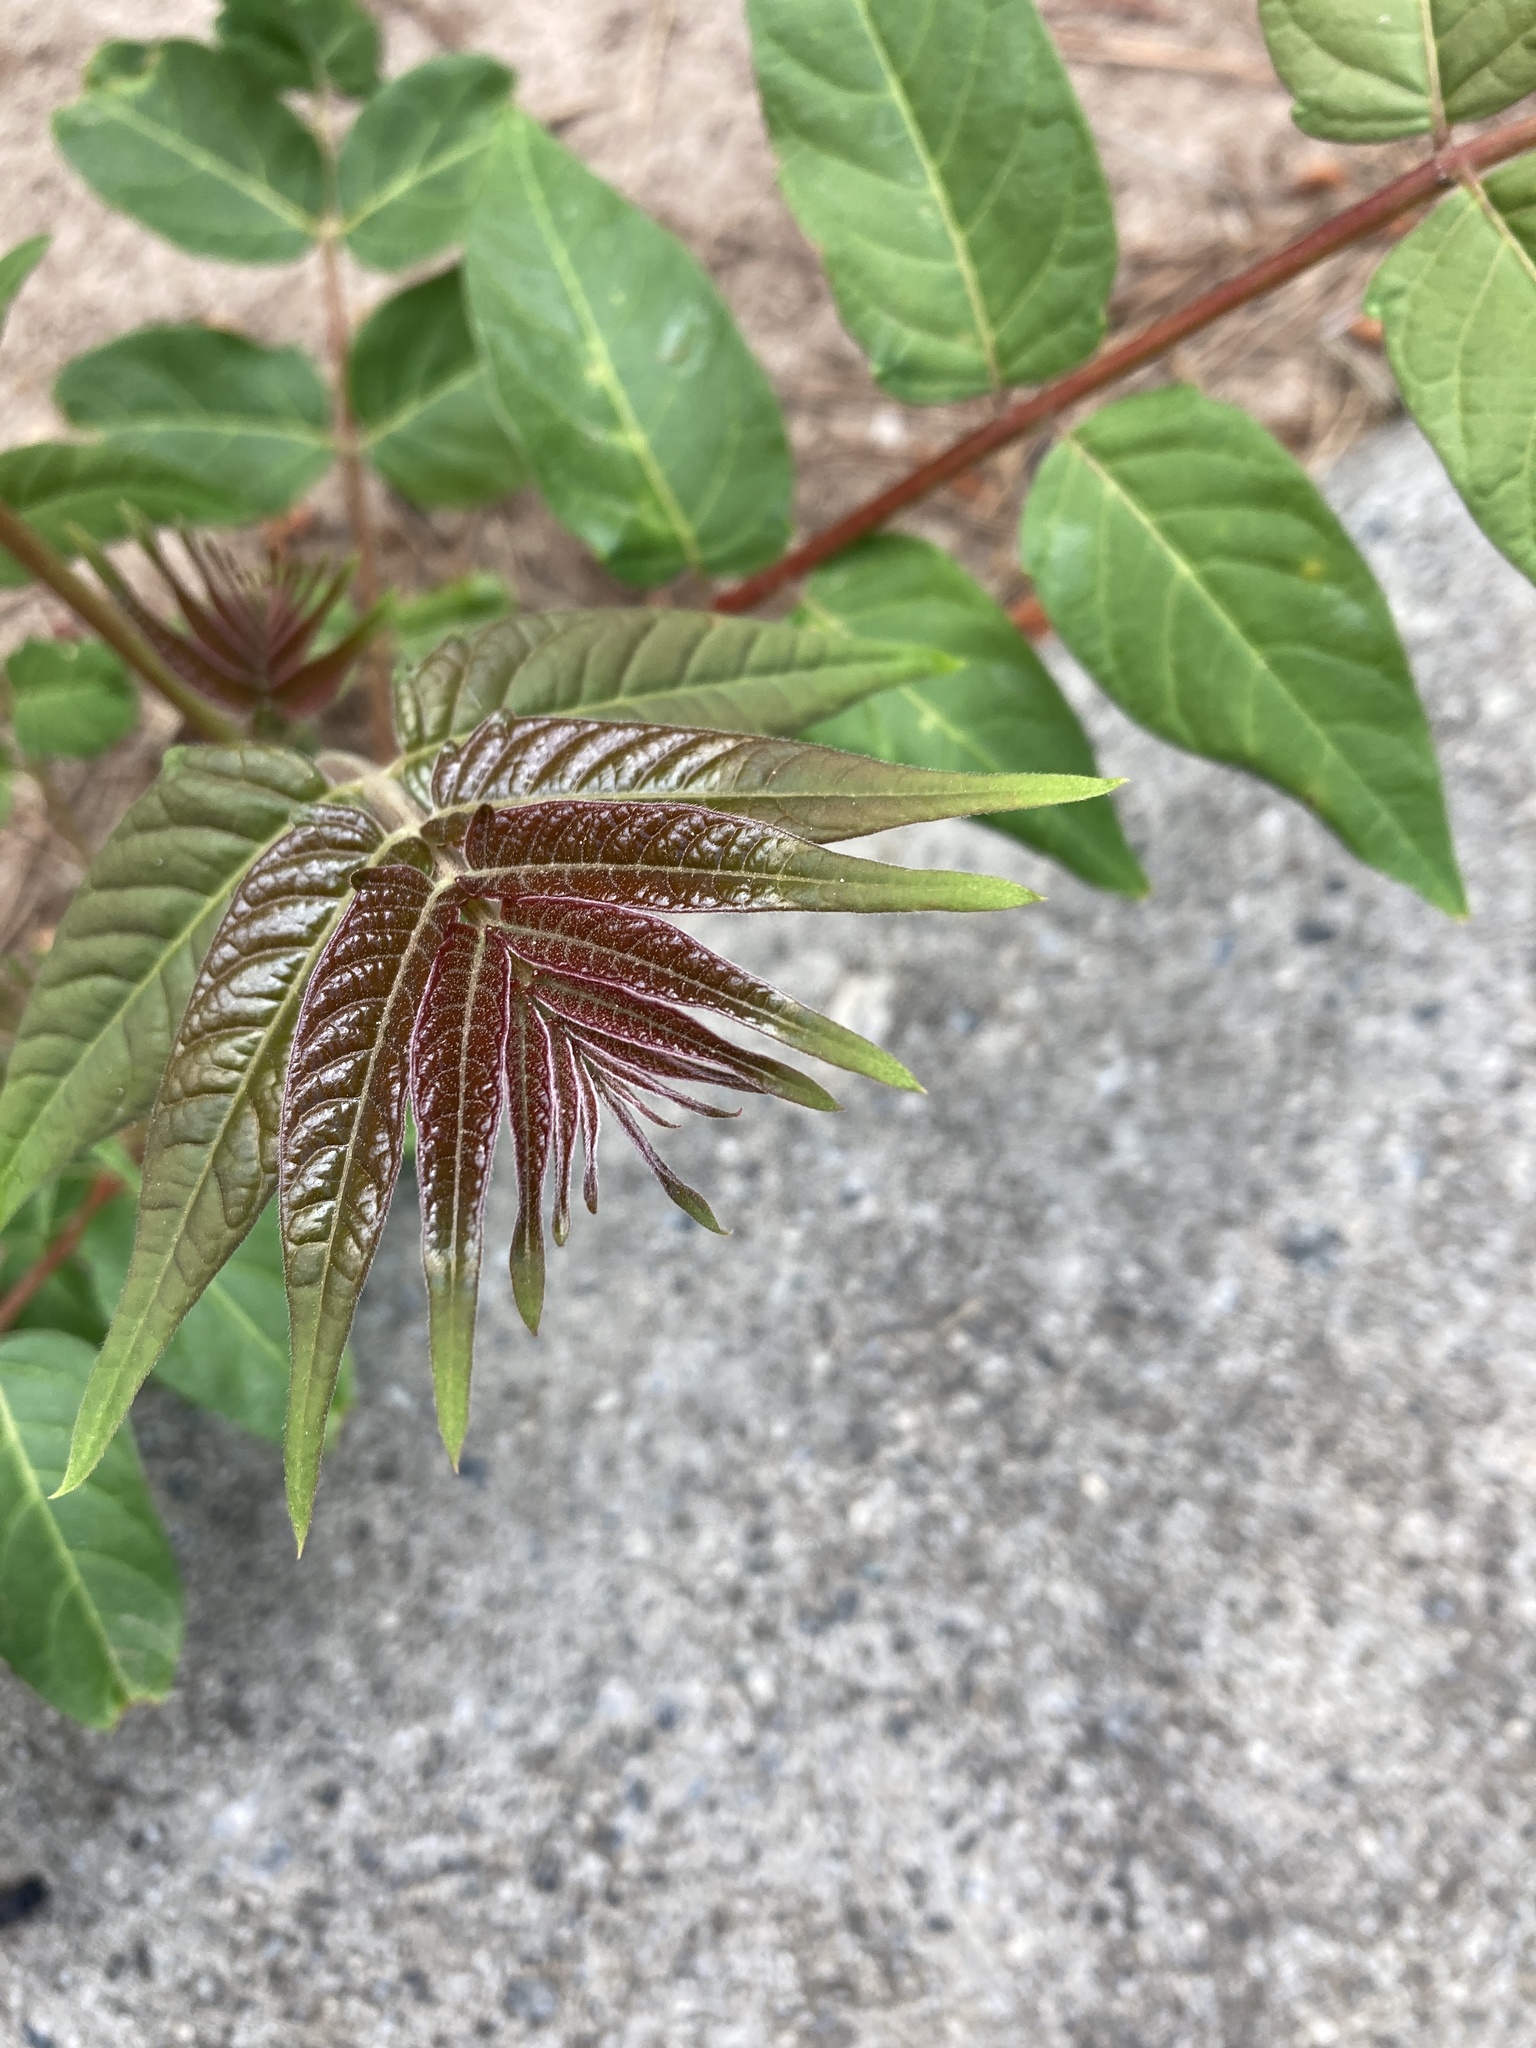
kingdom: Plantae
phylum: Tracheophyta
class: Magnoliopsida
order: Sapindales
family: Simaroubaceae
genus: Ailanthus
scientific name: Ailanthus altissima
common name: Tree-of-heaven
